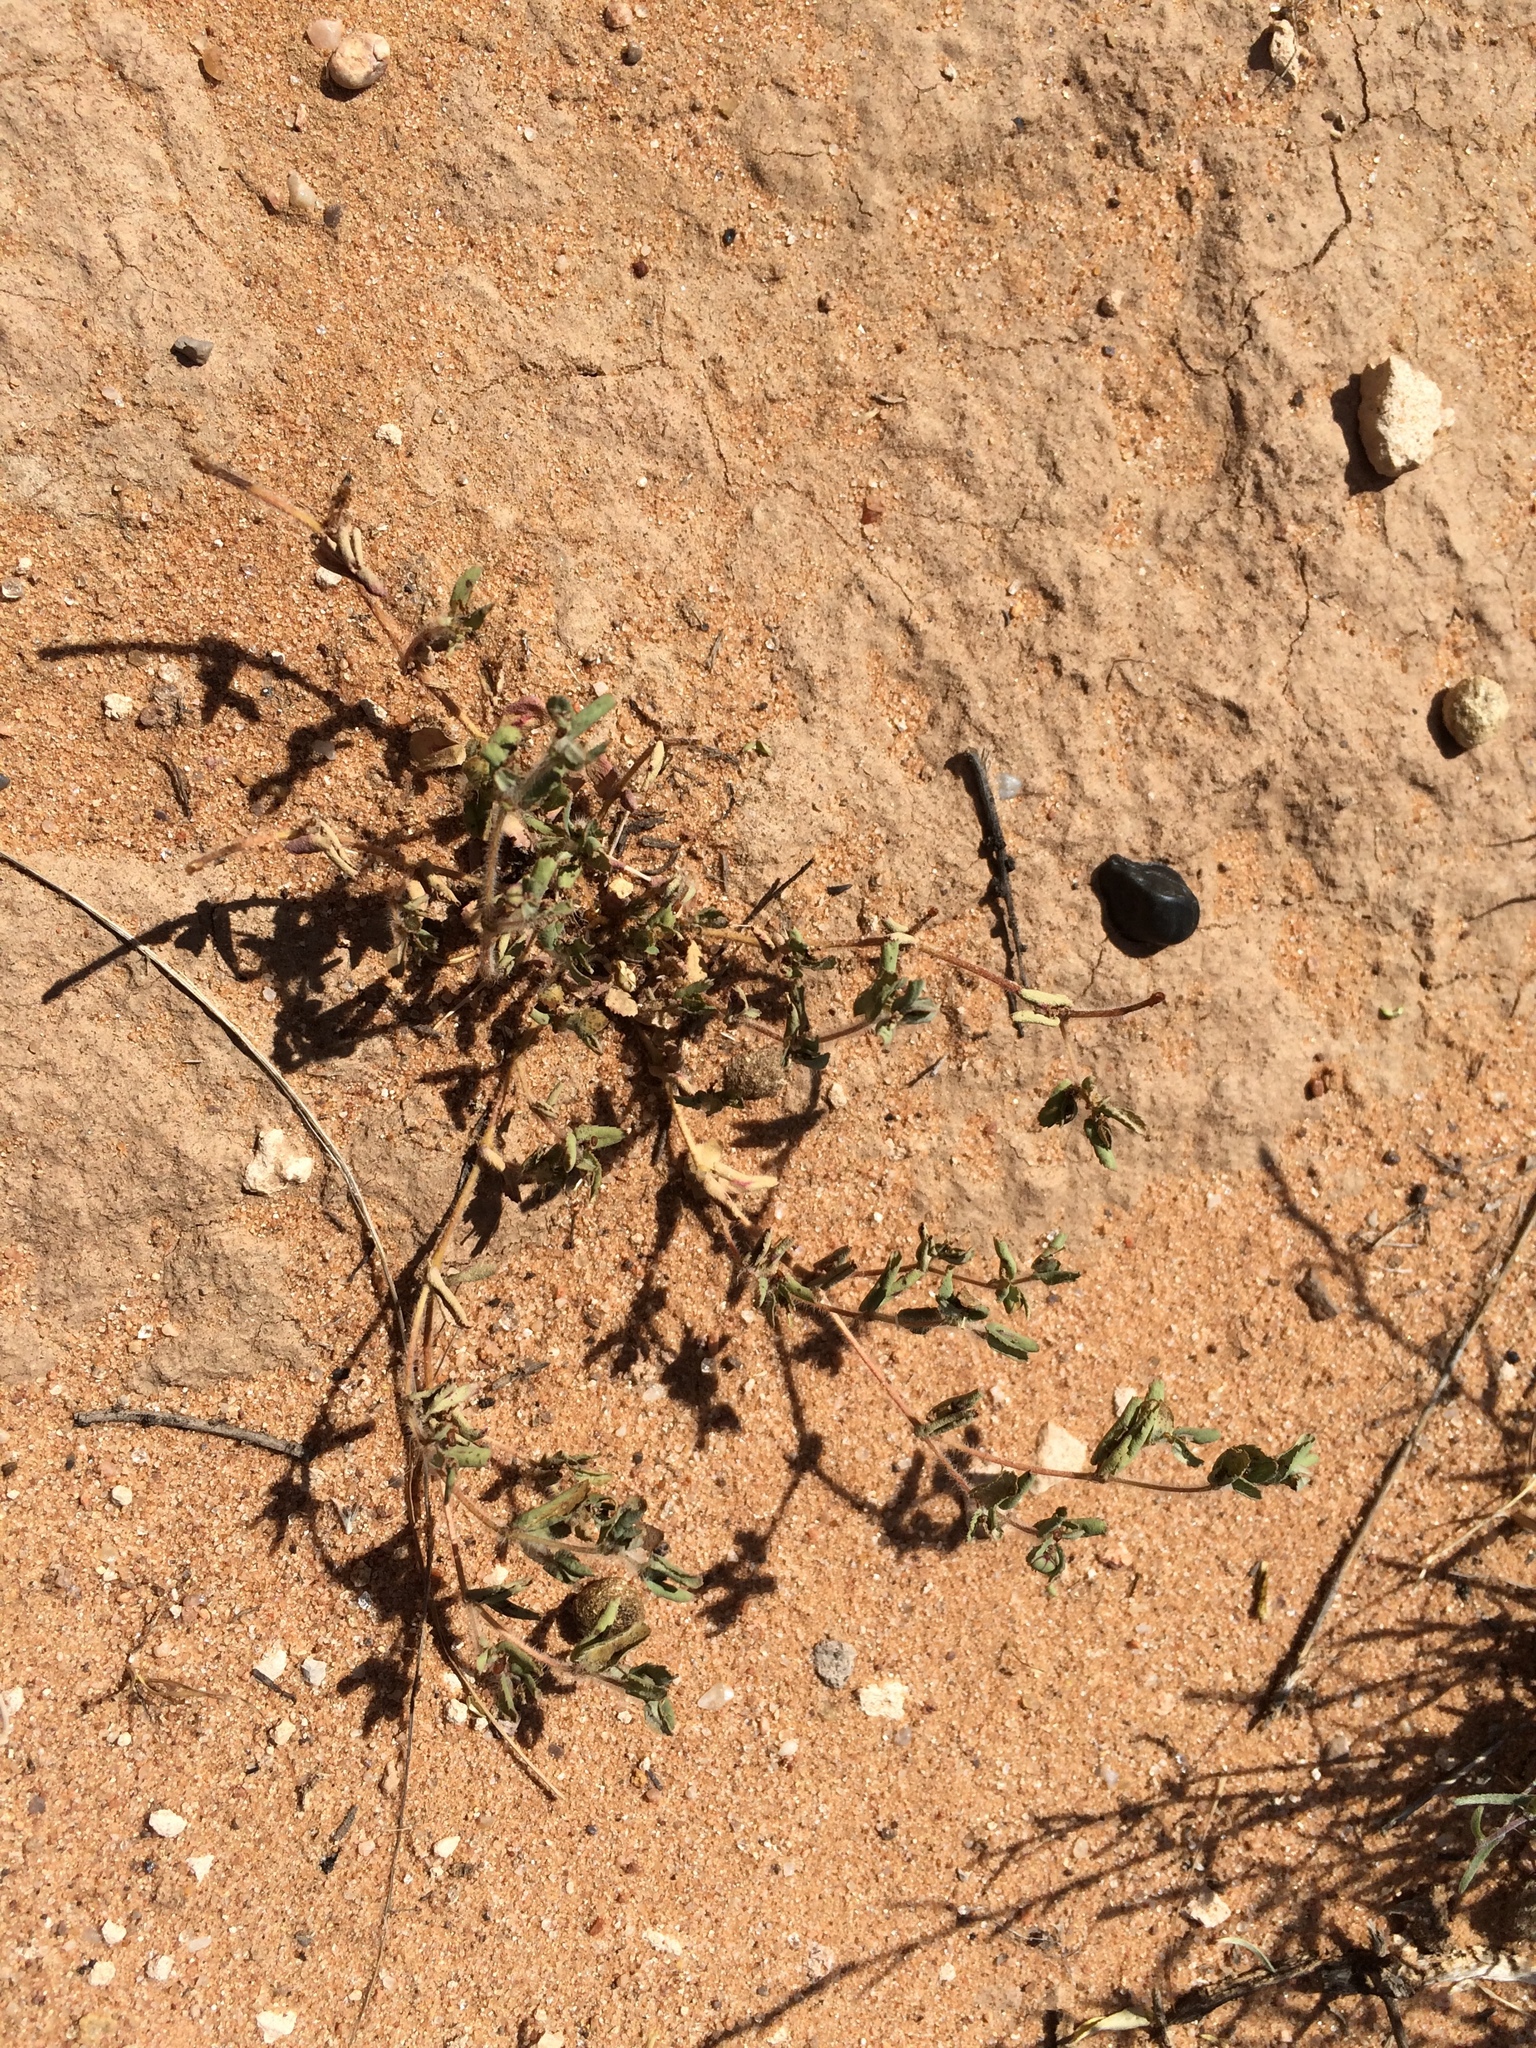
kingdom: Plantae
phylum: Tracheophyta
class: Magnoliopsida
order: Malpighiales
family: Euphorbiaceae
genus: Euphorbia
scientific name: Euphorbia serrula
